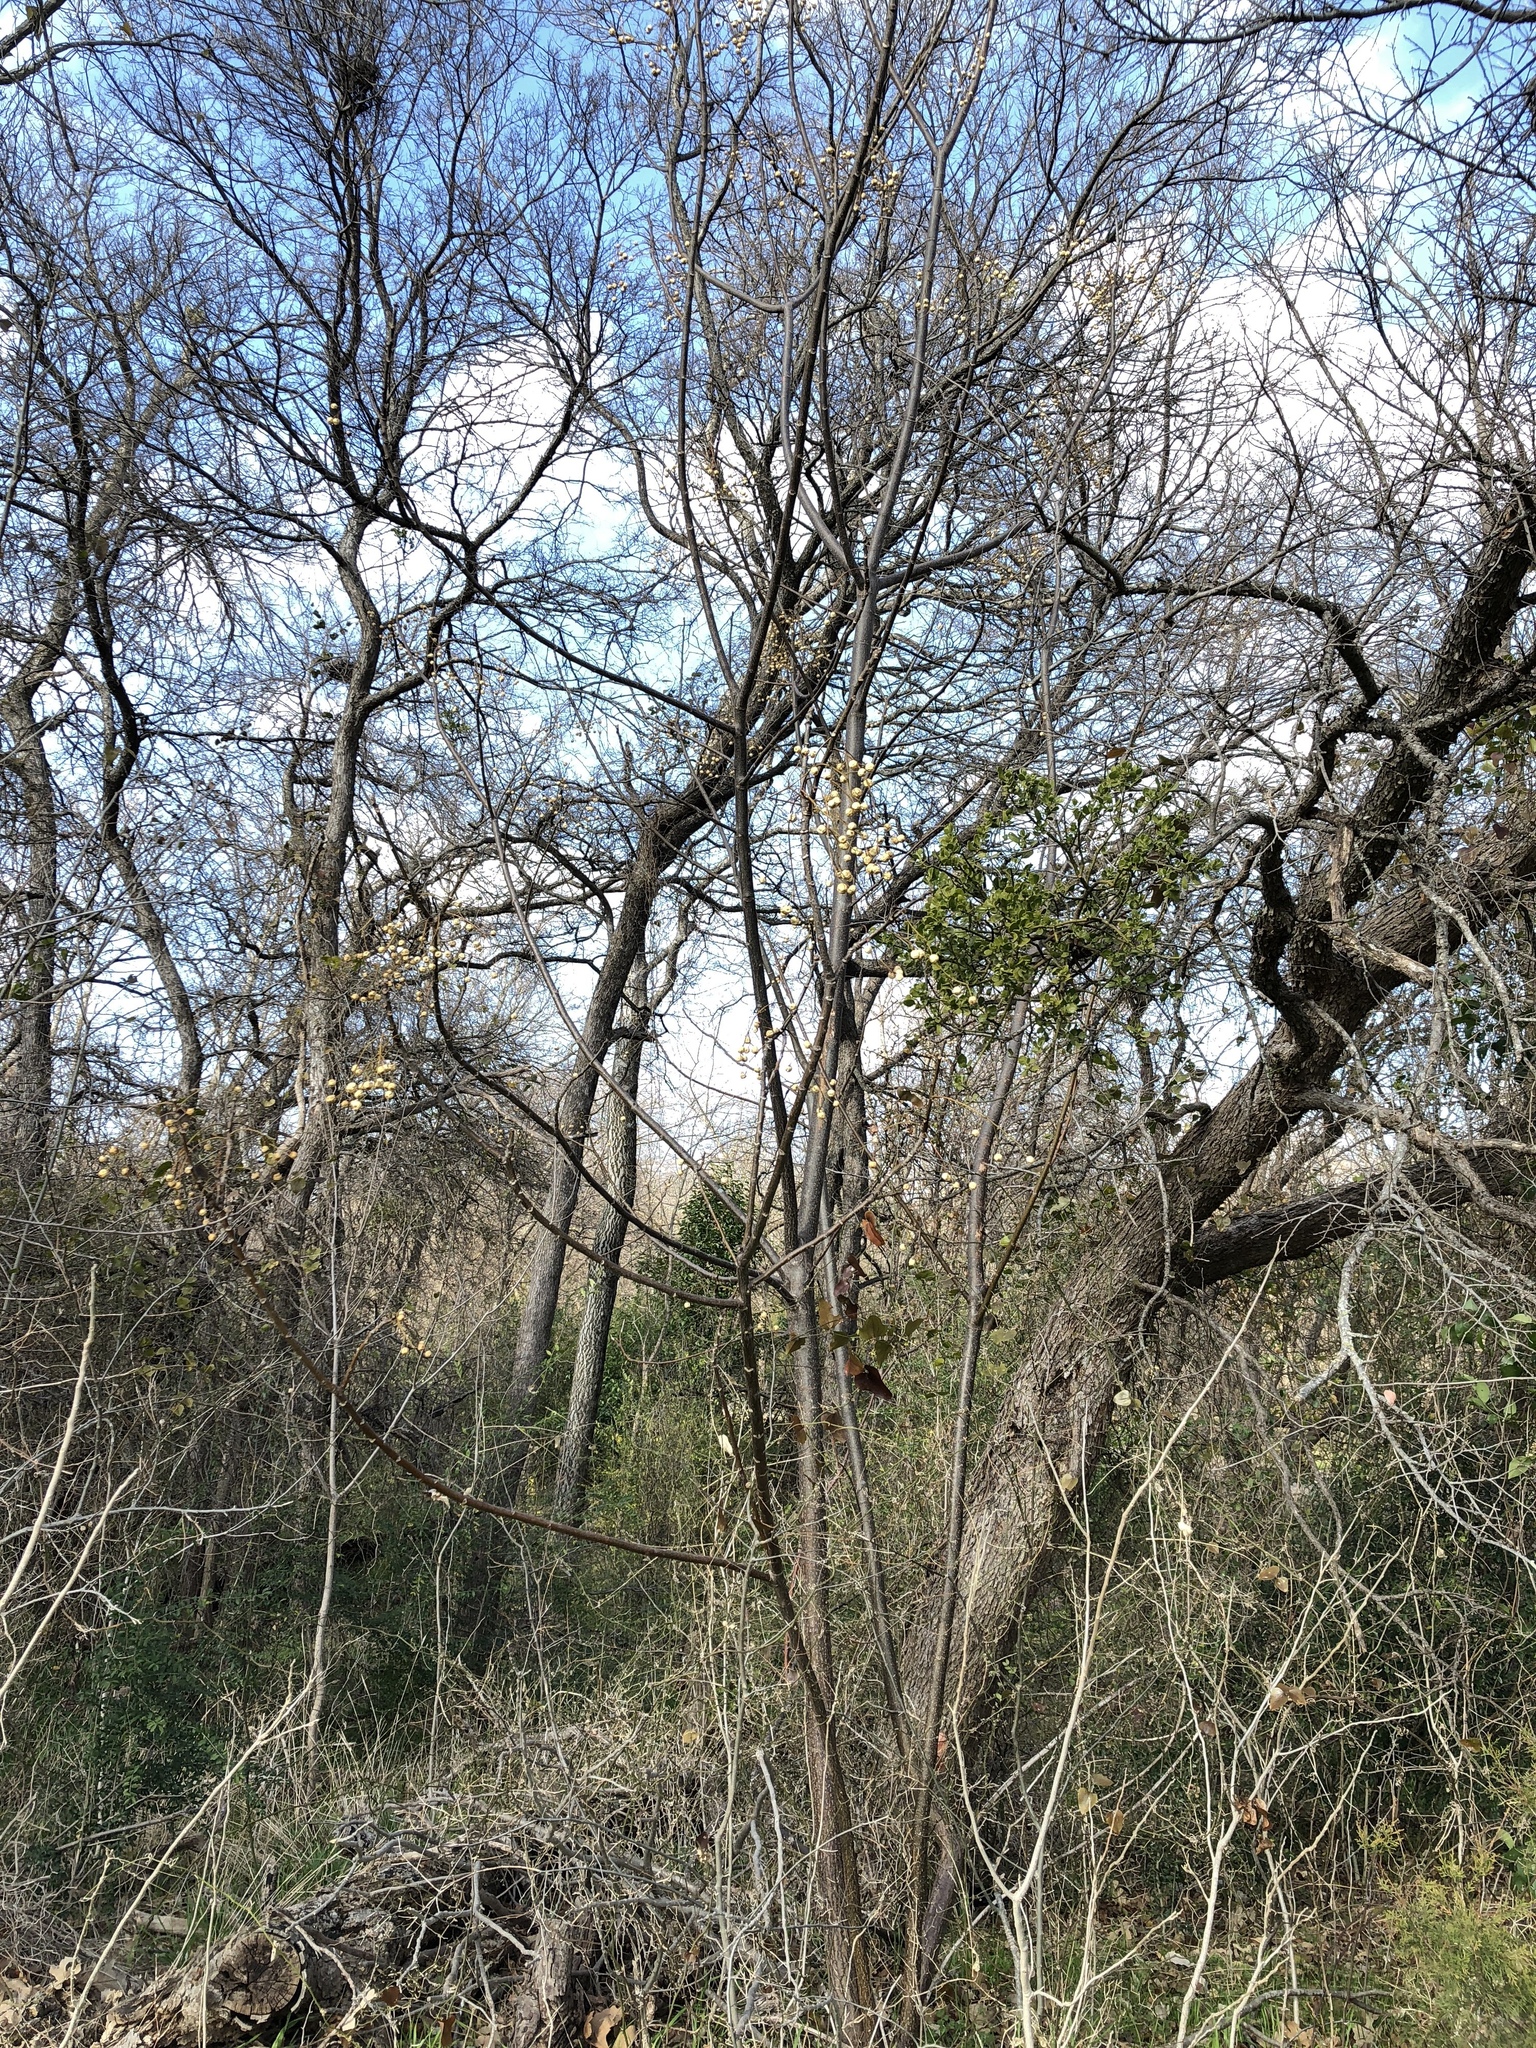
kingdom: Plantae
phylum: Tracheophyta
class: Magnoliopsida
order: Sapindales
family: Meliaceae
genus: Melia
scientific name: Melia azedarach
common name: Chinaberrytree
